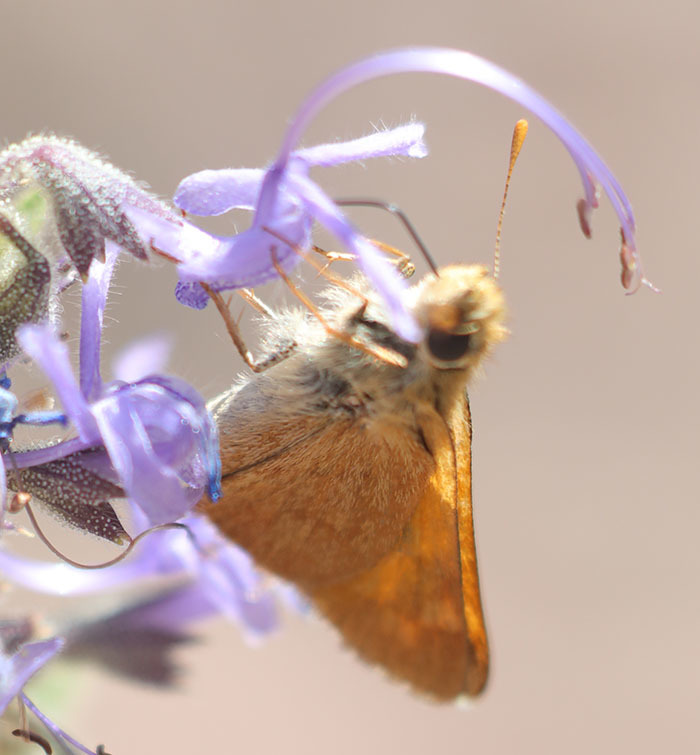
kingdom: Animalia
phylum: Arthropoda
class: Insecta
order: Lepidoptera
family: Hesperiidae
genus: Ochlodes
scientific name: Ochlodes sylvanoides
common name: Woodland skipper
